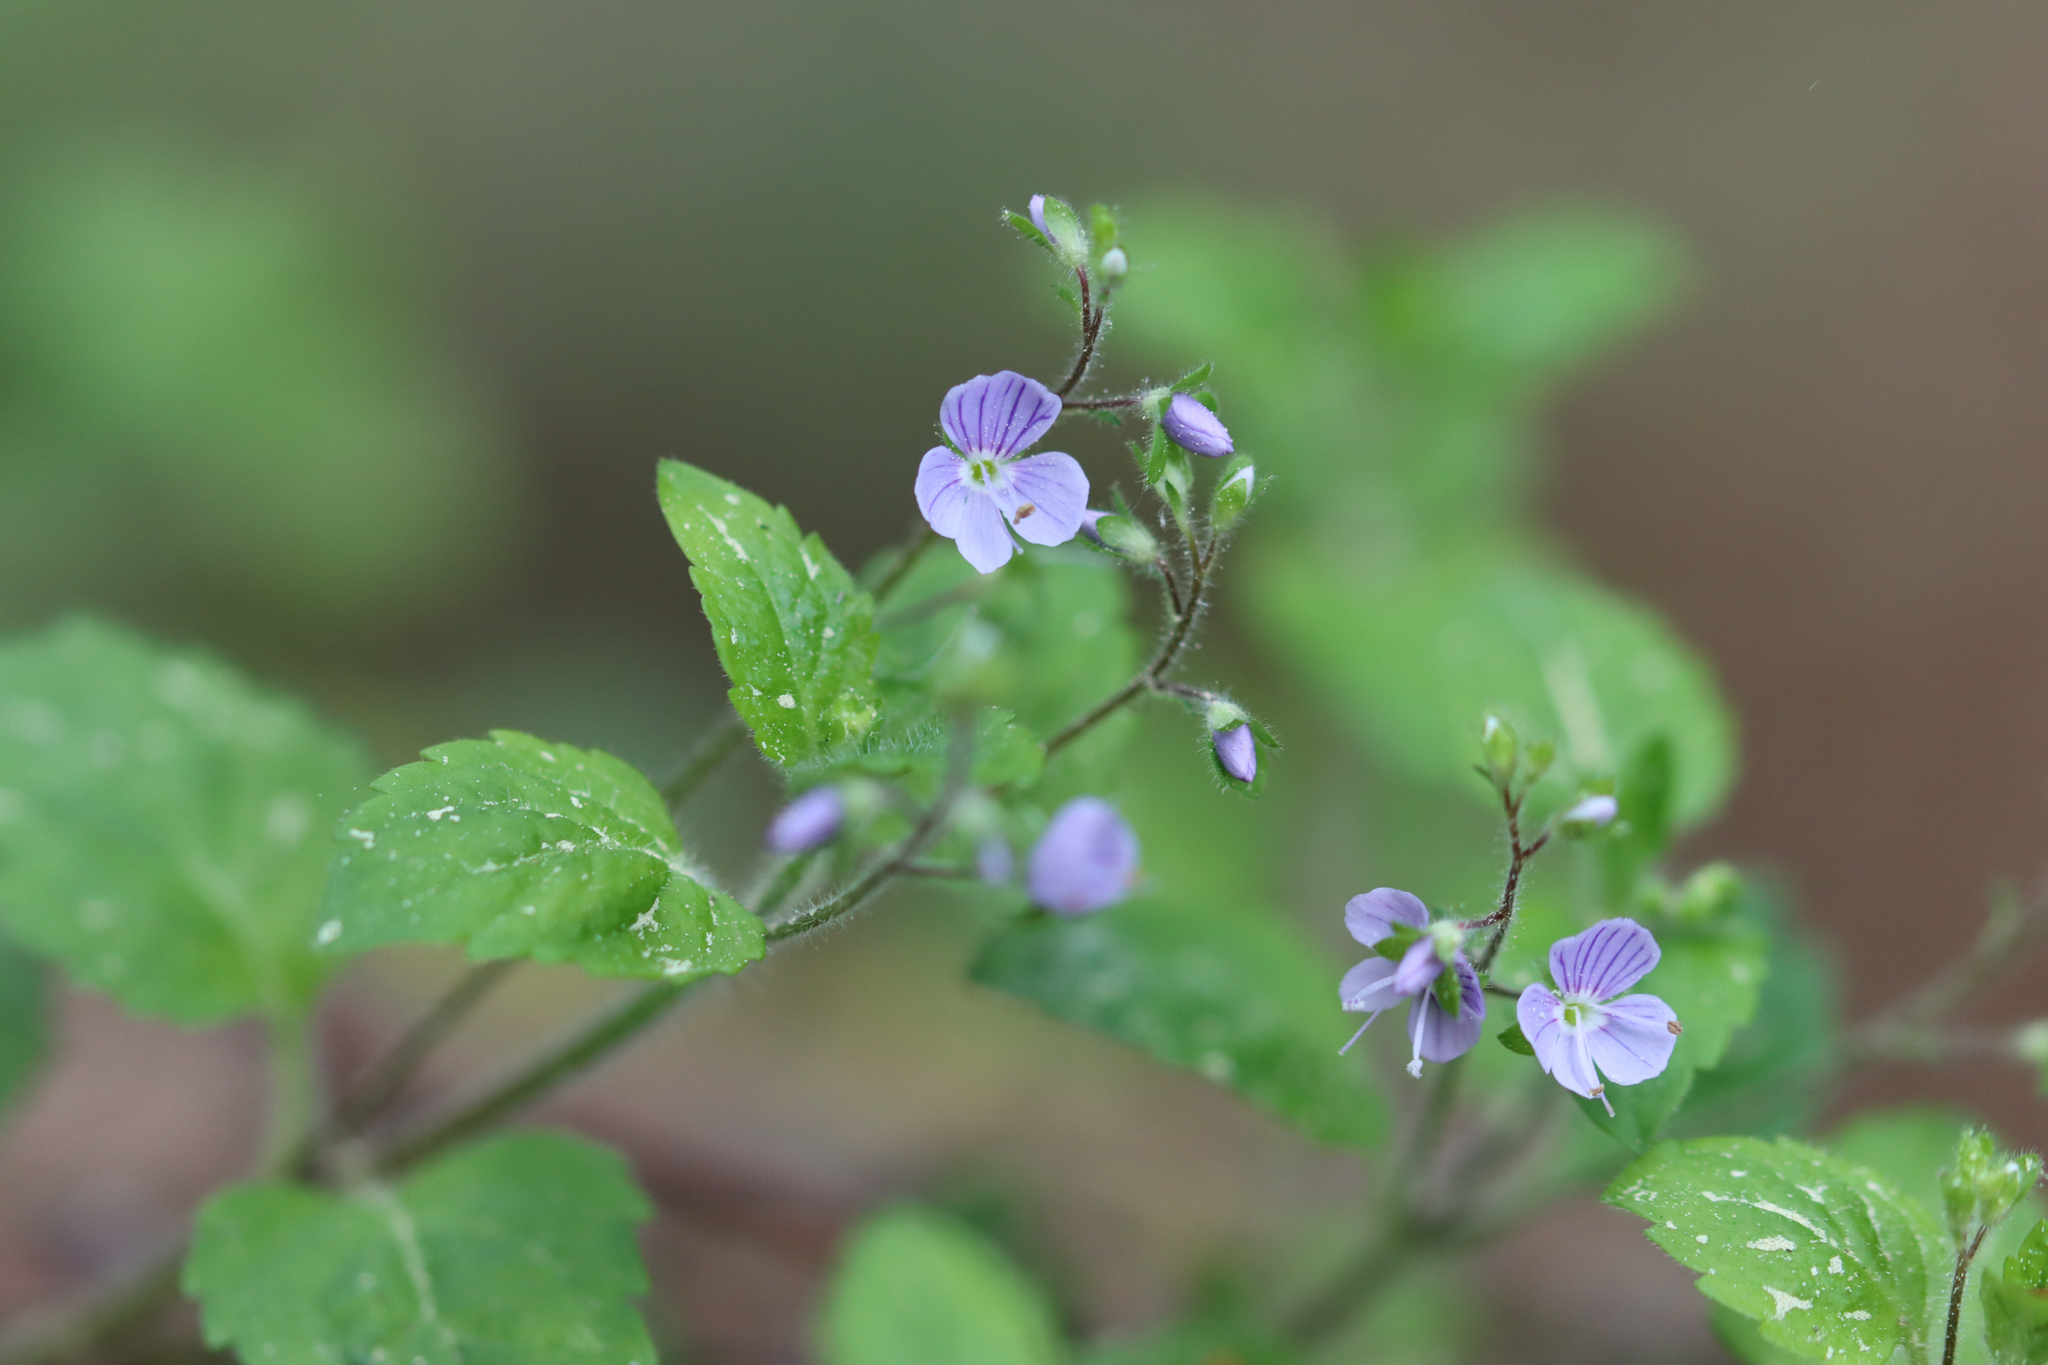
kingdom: Plantae
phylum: Tracheophyta
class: Magnoliopsida
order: Lamiales
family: Plantaginaceae
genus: Veronica
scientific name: Veronica montana
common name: Wood speedwell
